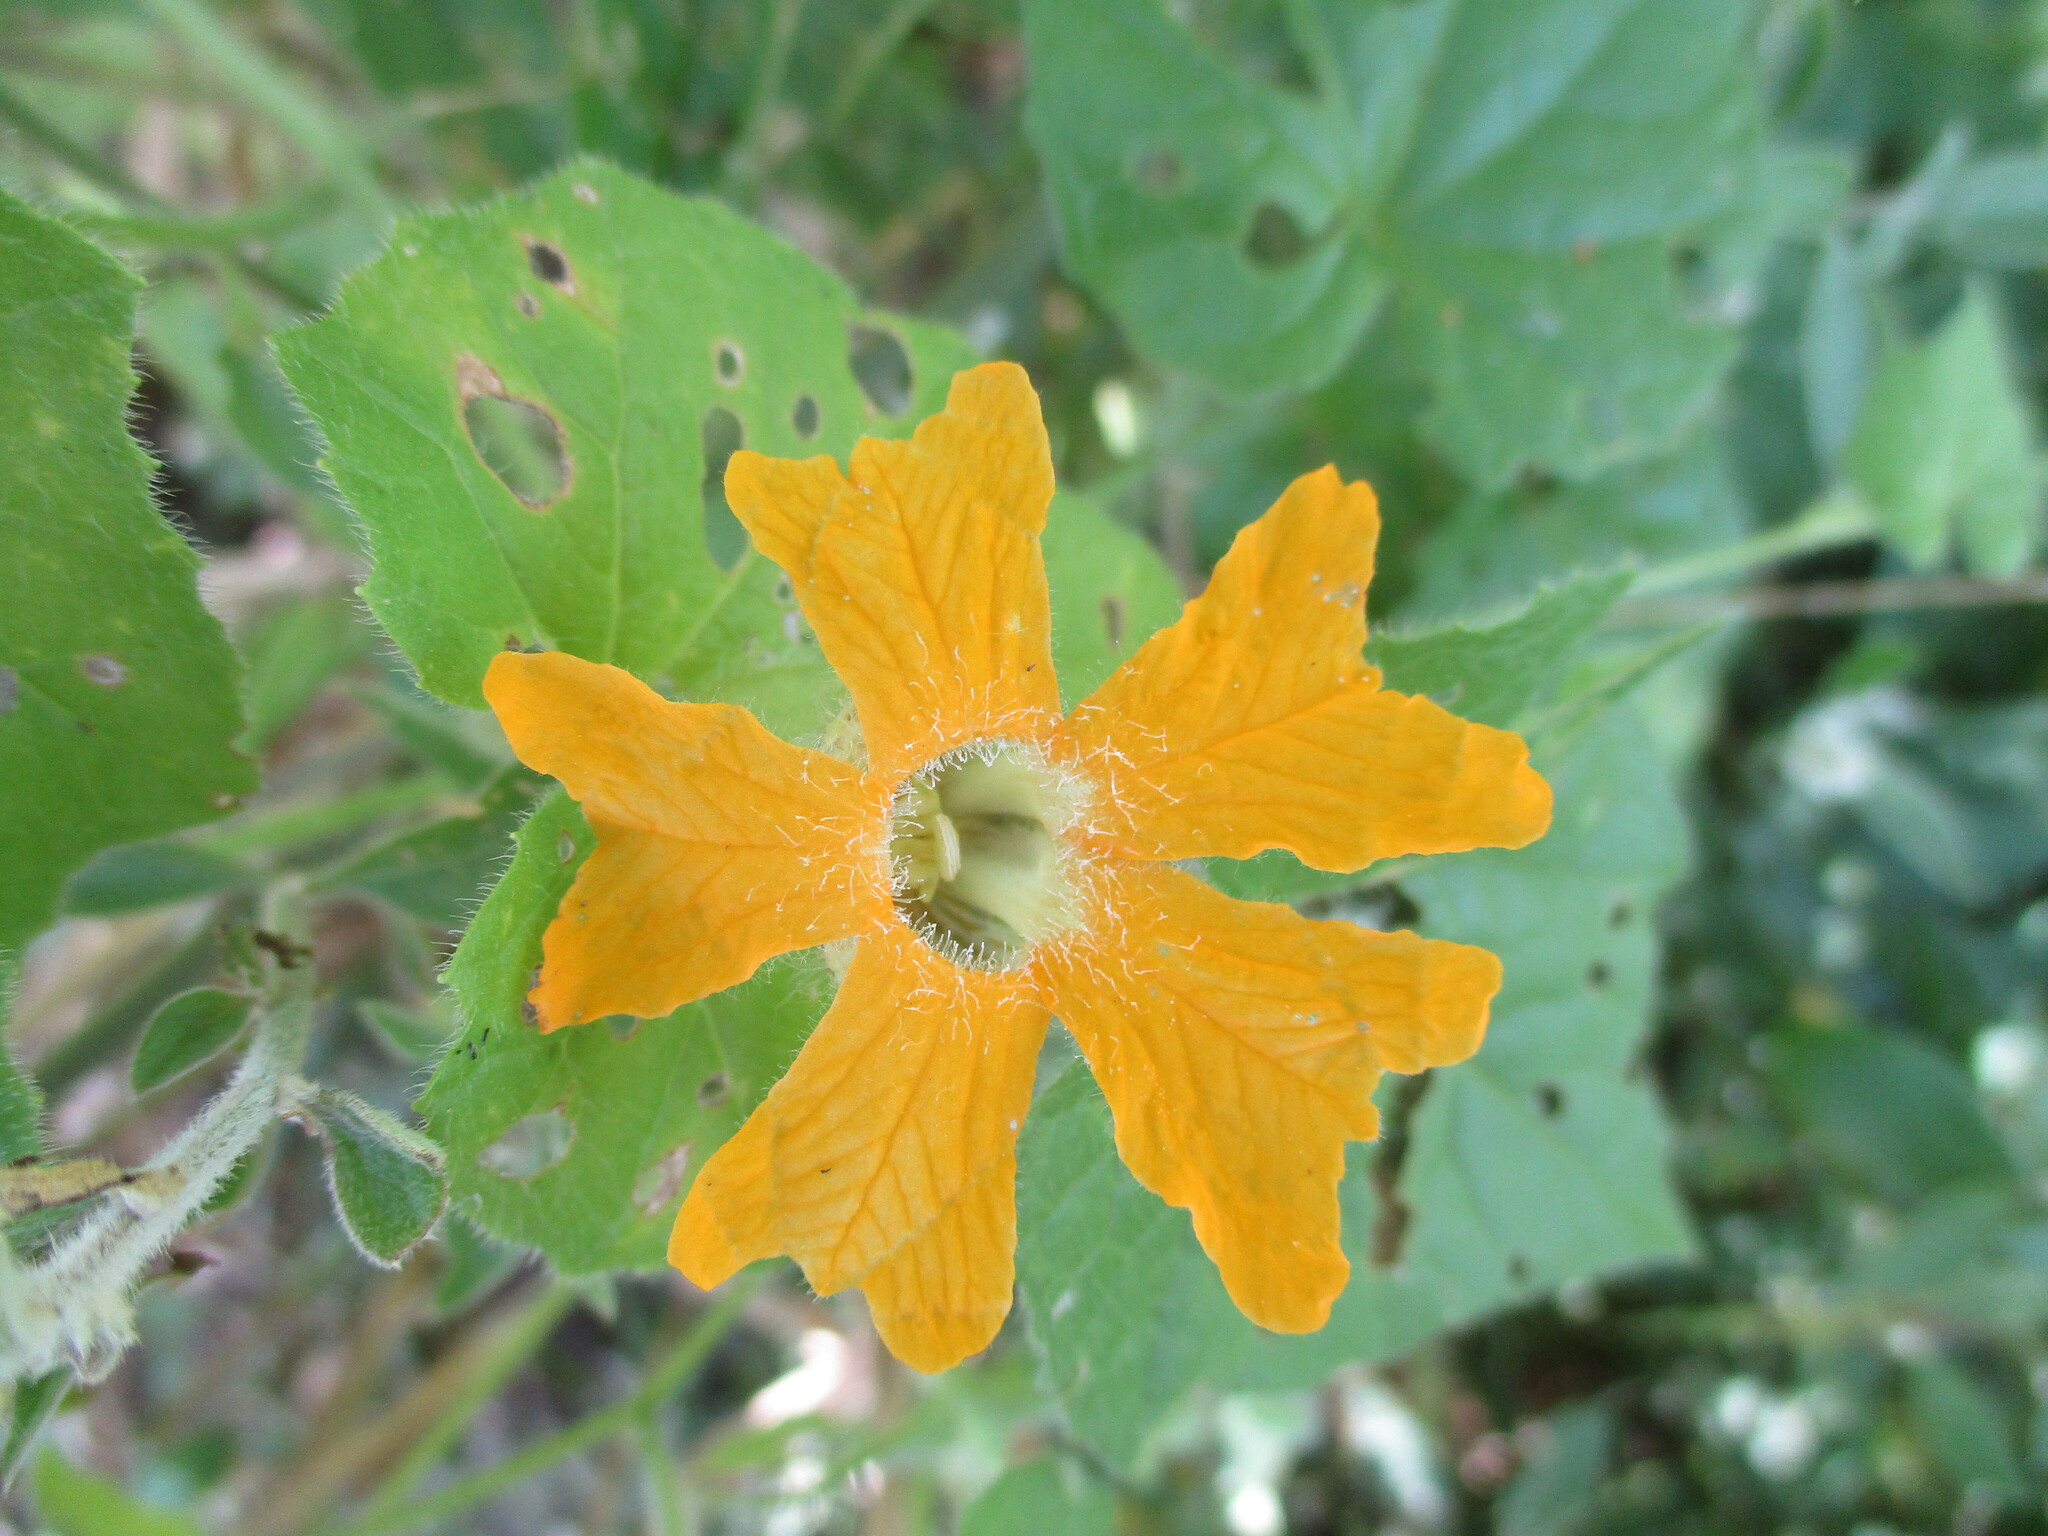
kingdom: Plantae
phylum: Tracheophyta
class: Magnoliopsida
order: Cucurbitales
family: Cucurbitaceae
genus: Momordica
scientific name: Momordica kirkii
